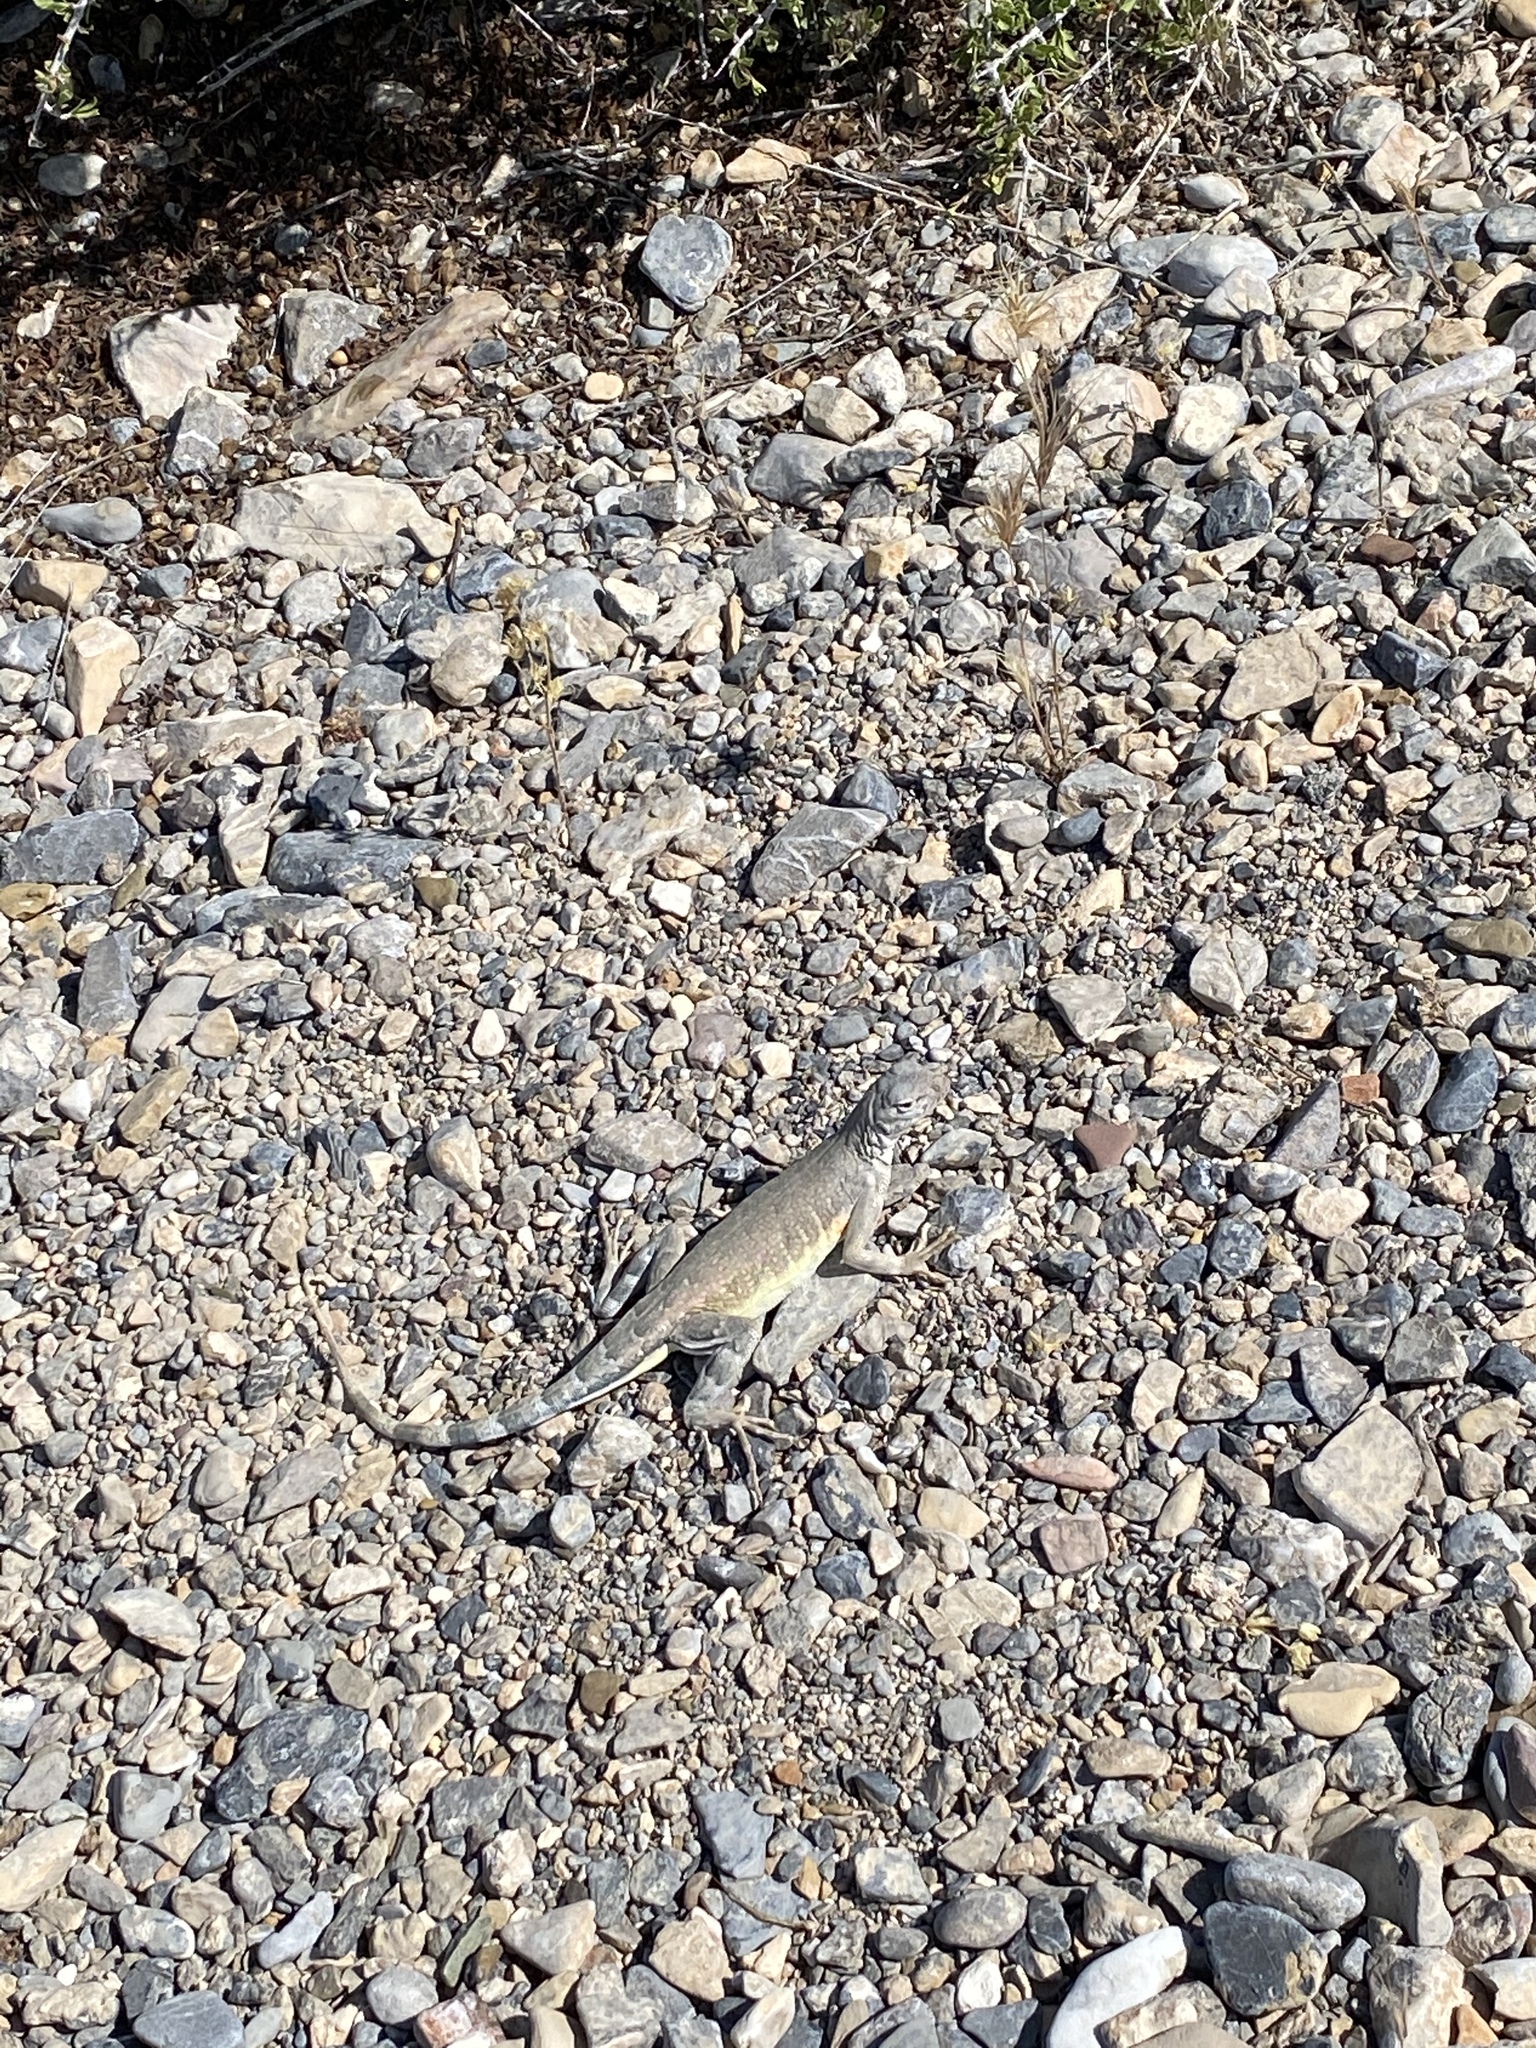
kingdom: Animalia
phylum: Chordata
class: Squamata
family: Phrynosomatidae
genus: Callisaurus
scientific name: Callisaurus draconoides
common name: Zebra-tailed lizard
